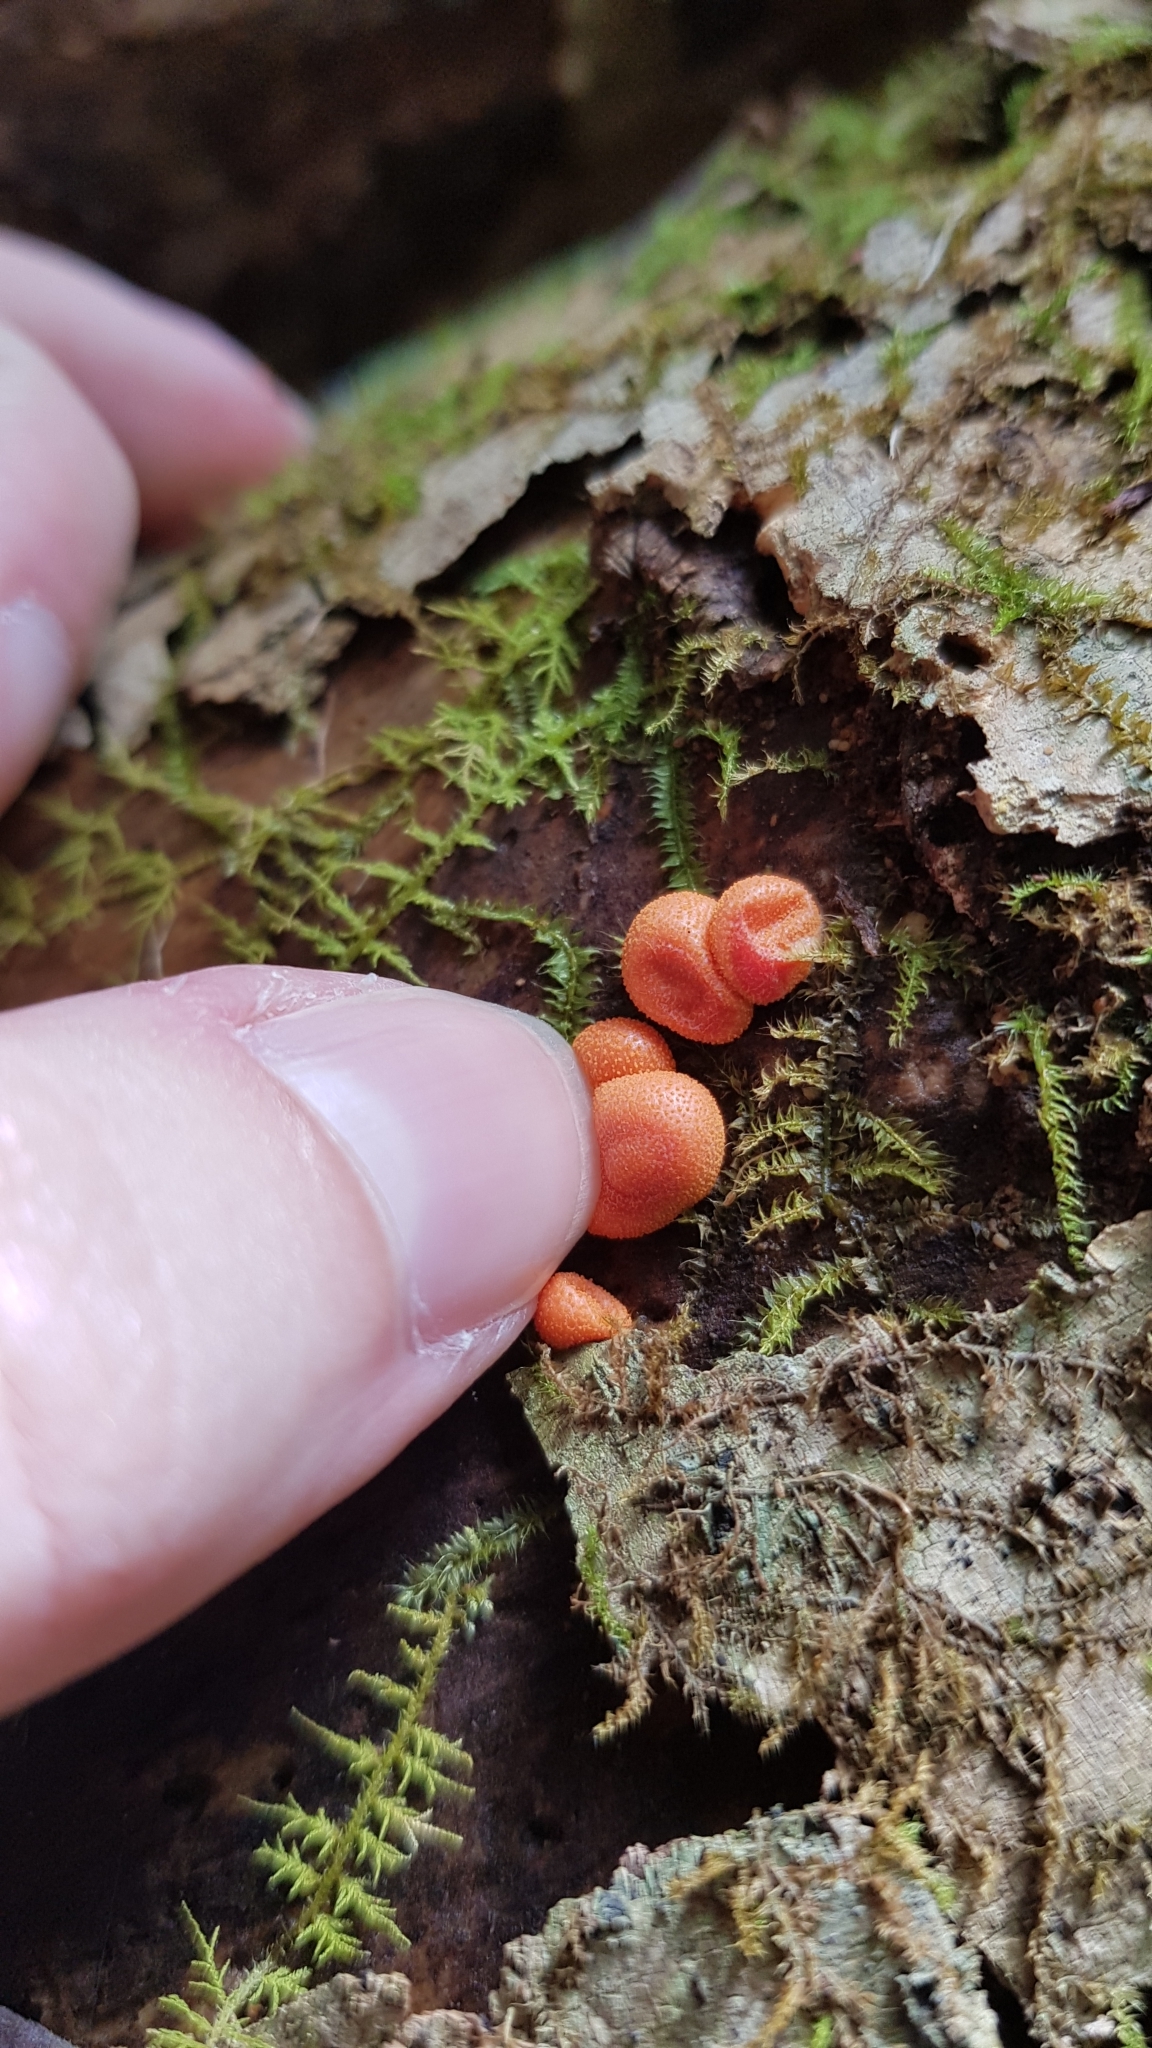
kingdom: Protozoa
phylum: Mycetozoa
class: Myxomycetes
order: Cribrariales
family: Tubiferaceae
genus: Lycogala
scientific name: Lycogala epidendrum
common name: Wolf's milk
